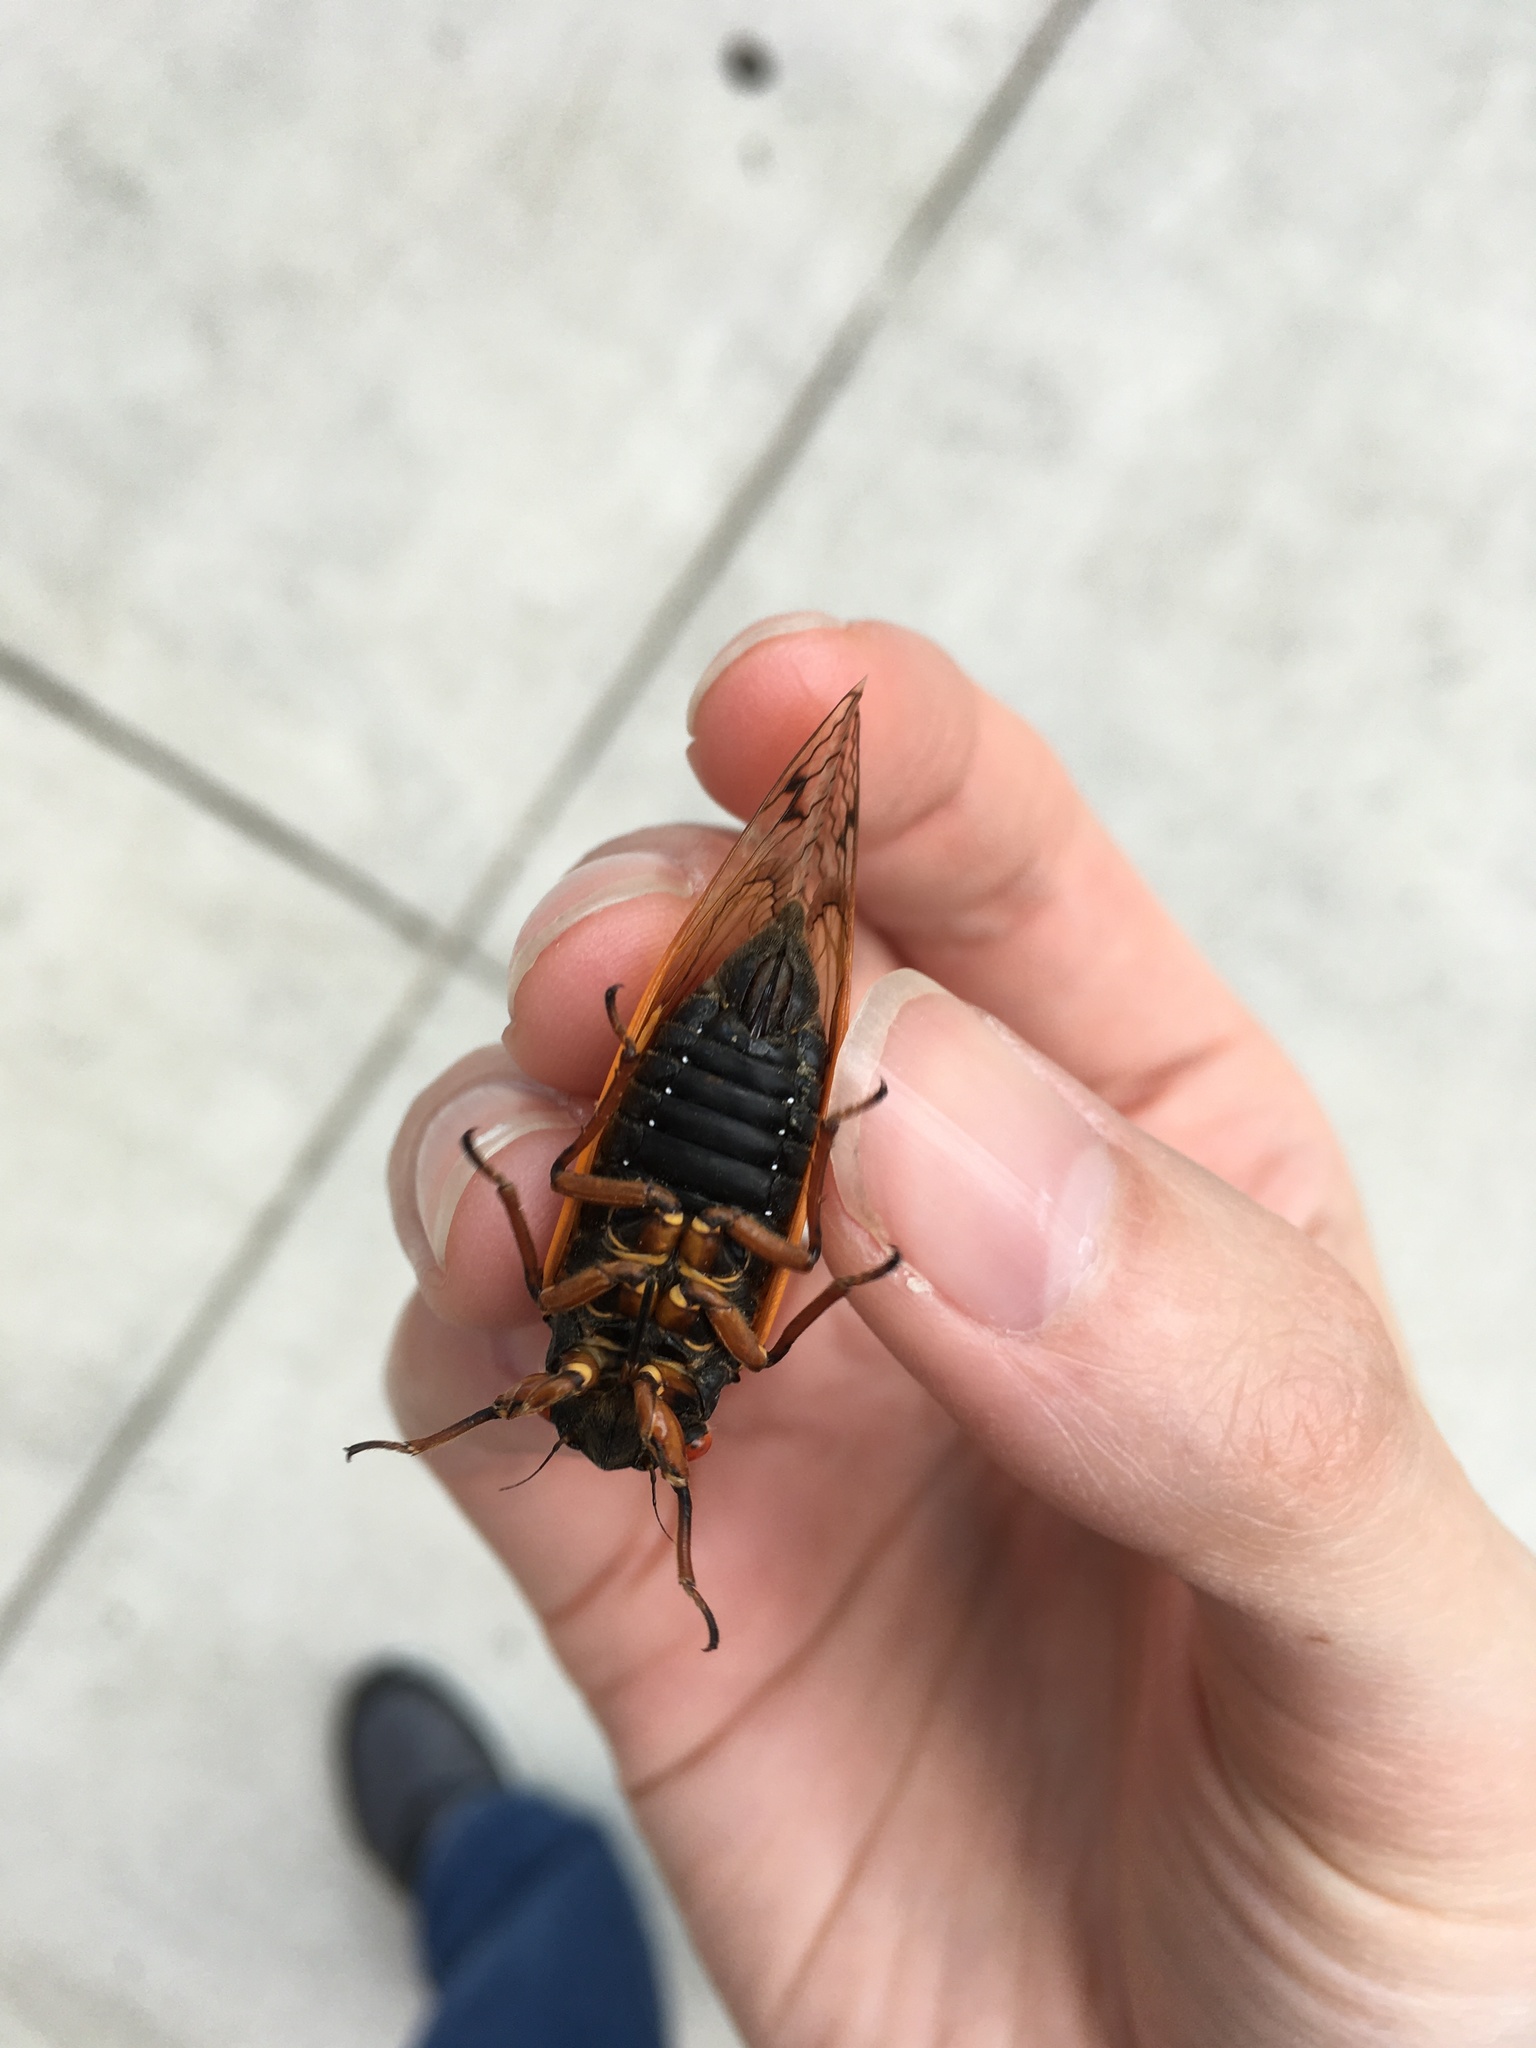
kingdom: Animalia
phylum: Arthropoda
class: Insecta
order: Hemiptera
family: Cicadidae
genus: Magicicada
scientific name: Magicicada cassini
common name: Cassin's 17-year cicada
